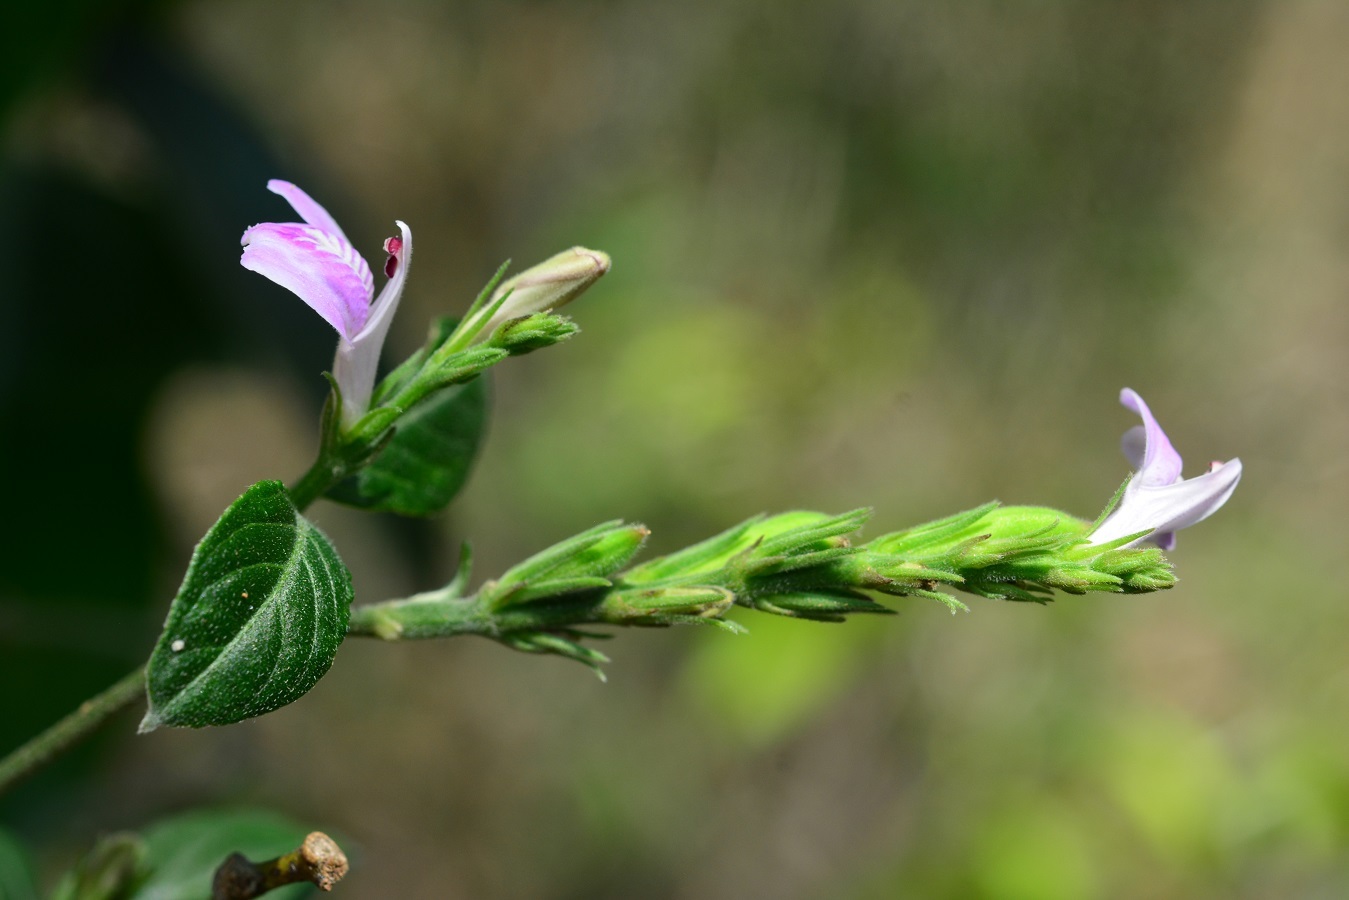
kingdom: Plantae
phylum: Tracheophyta
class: Magnoliopsida
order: Lamiales
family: Acanthaceae
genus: Dianthera
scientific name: Dianthera breviflora
